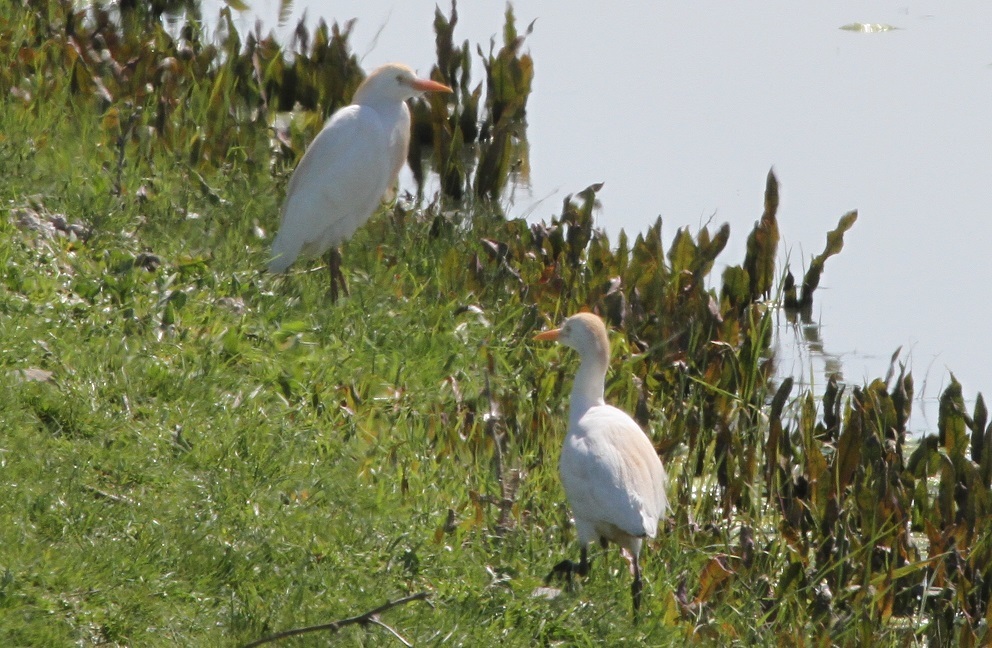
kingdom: Animalia
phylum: Chordata
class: Aves
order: Pelecaniformes
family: Ardeidae
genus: Bubulcus
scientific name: Bubulcus ibis
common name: Cattle egret
